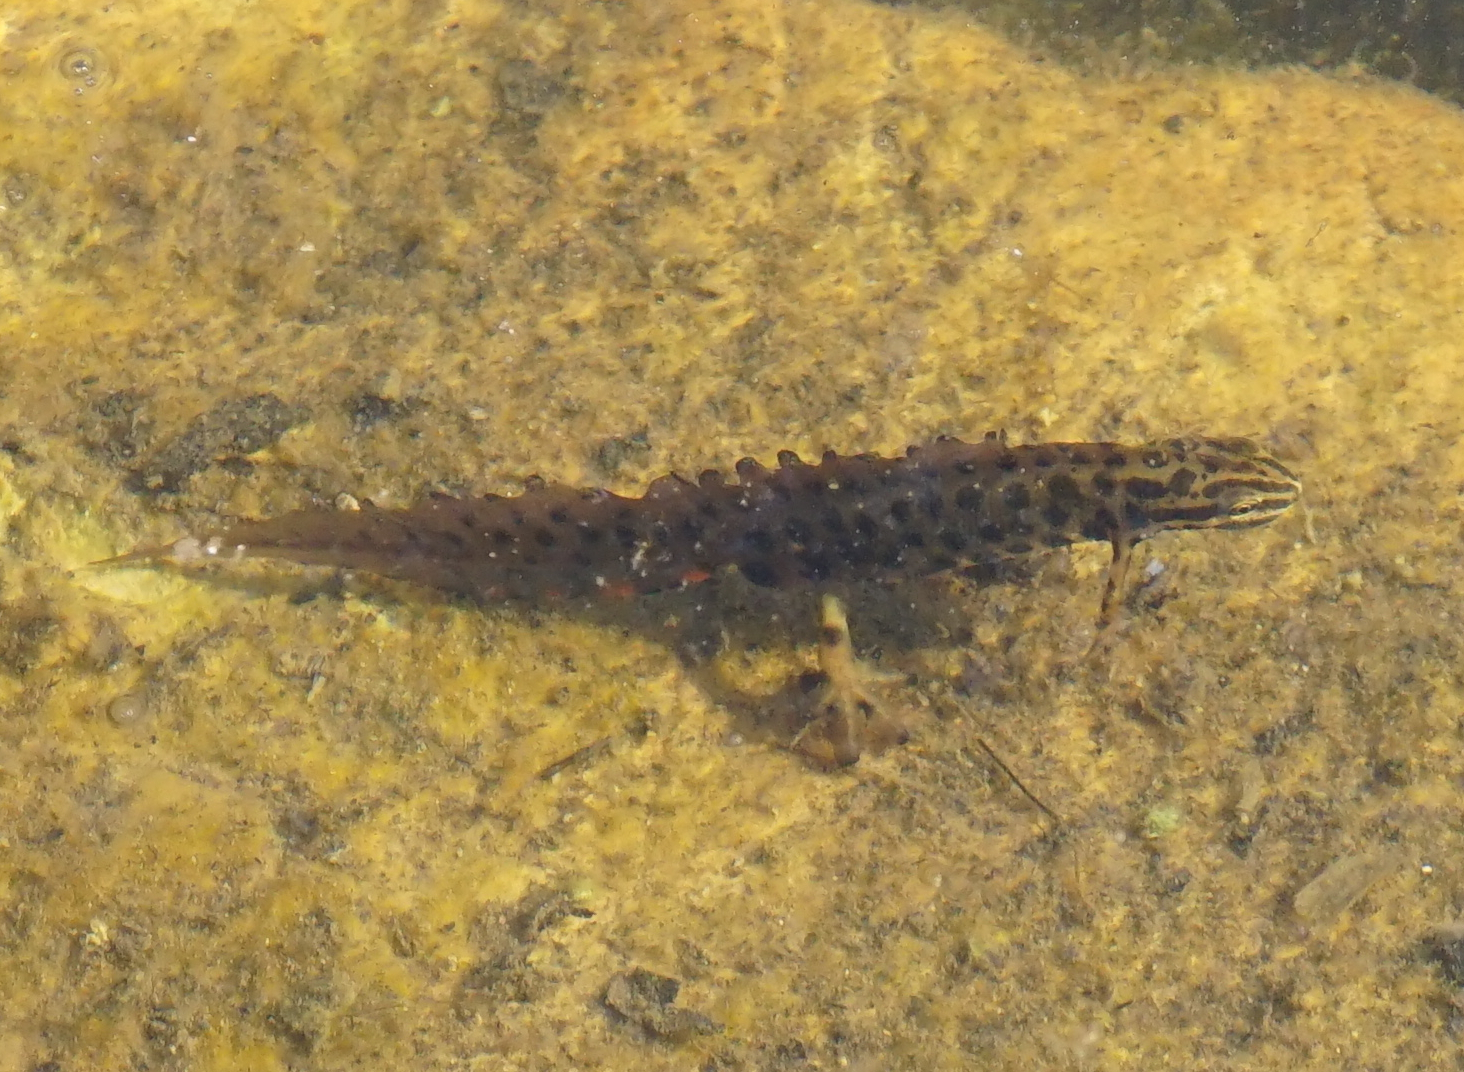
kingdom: Animalia
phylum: Chordata
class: Amphibia
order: Caudata
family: Salamandridae
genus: Lissotriton
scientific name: Lissotriton vulgaris
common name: Smooth newt
